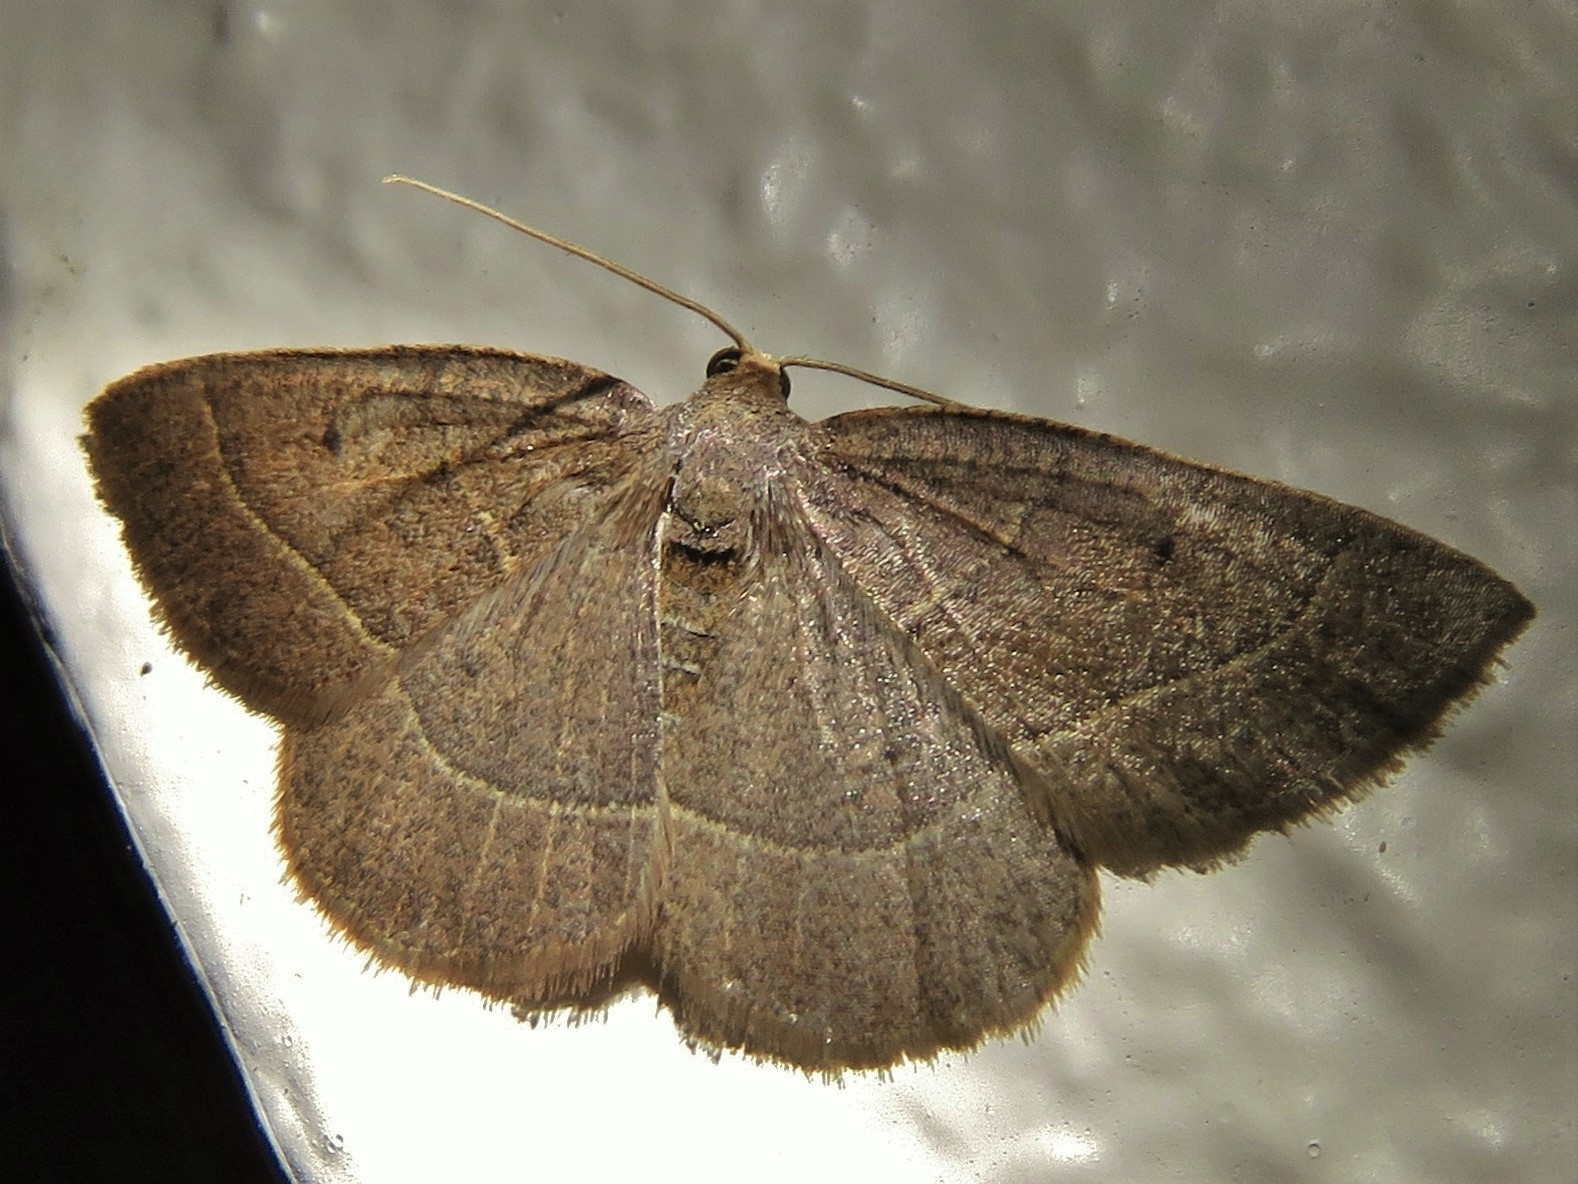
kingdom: Animalia
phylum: Arthropoda
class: Insecta
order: Lepidoptera
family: Geometridae
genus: Episemasia
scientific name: Episemasia cervinaria
